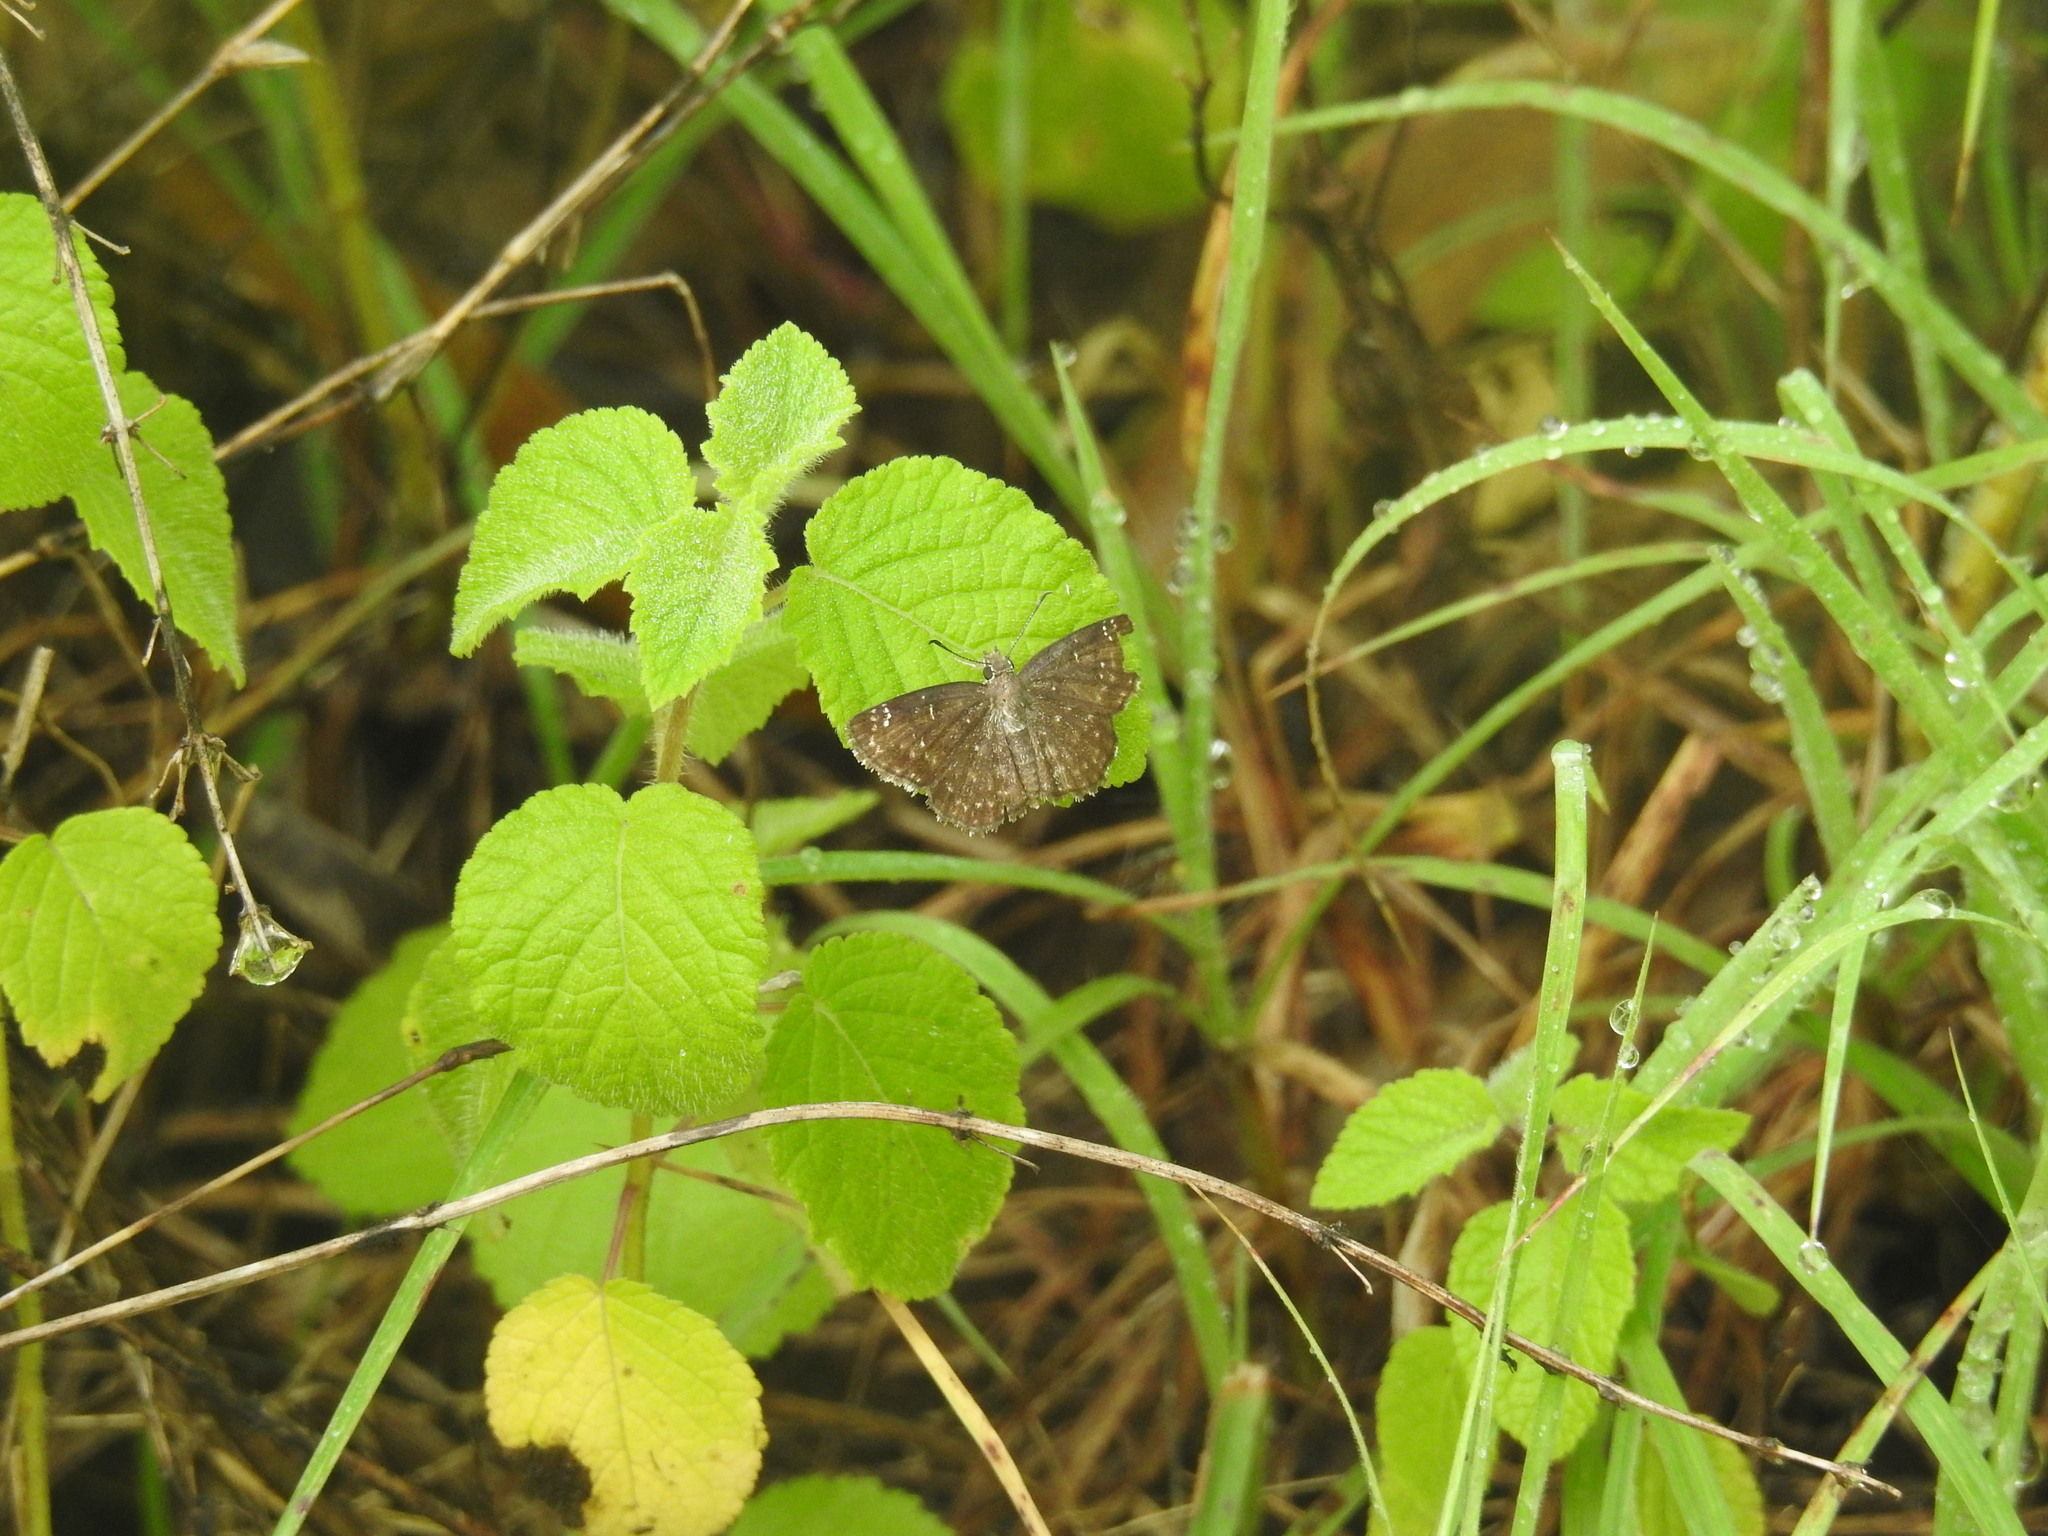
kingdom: Animalia
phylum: Arthropoda
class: Insecta
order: Lepidoptera
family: Hesperiidae
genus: Sarangesa
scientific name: Sarangesa purendra
